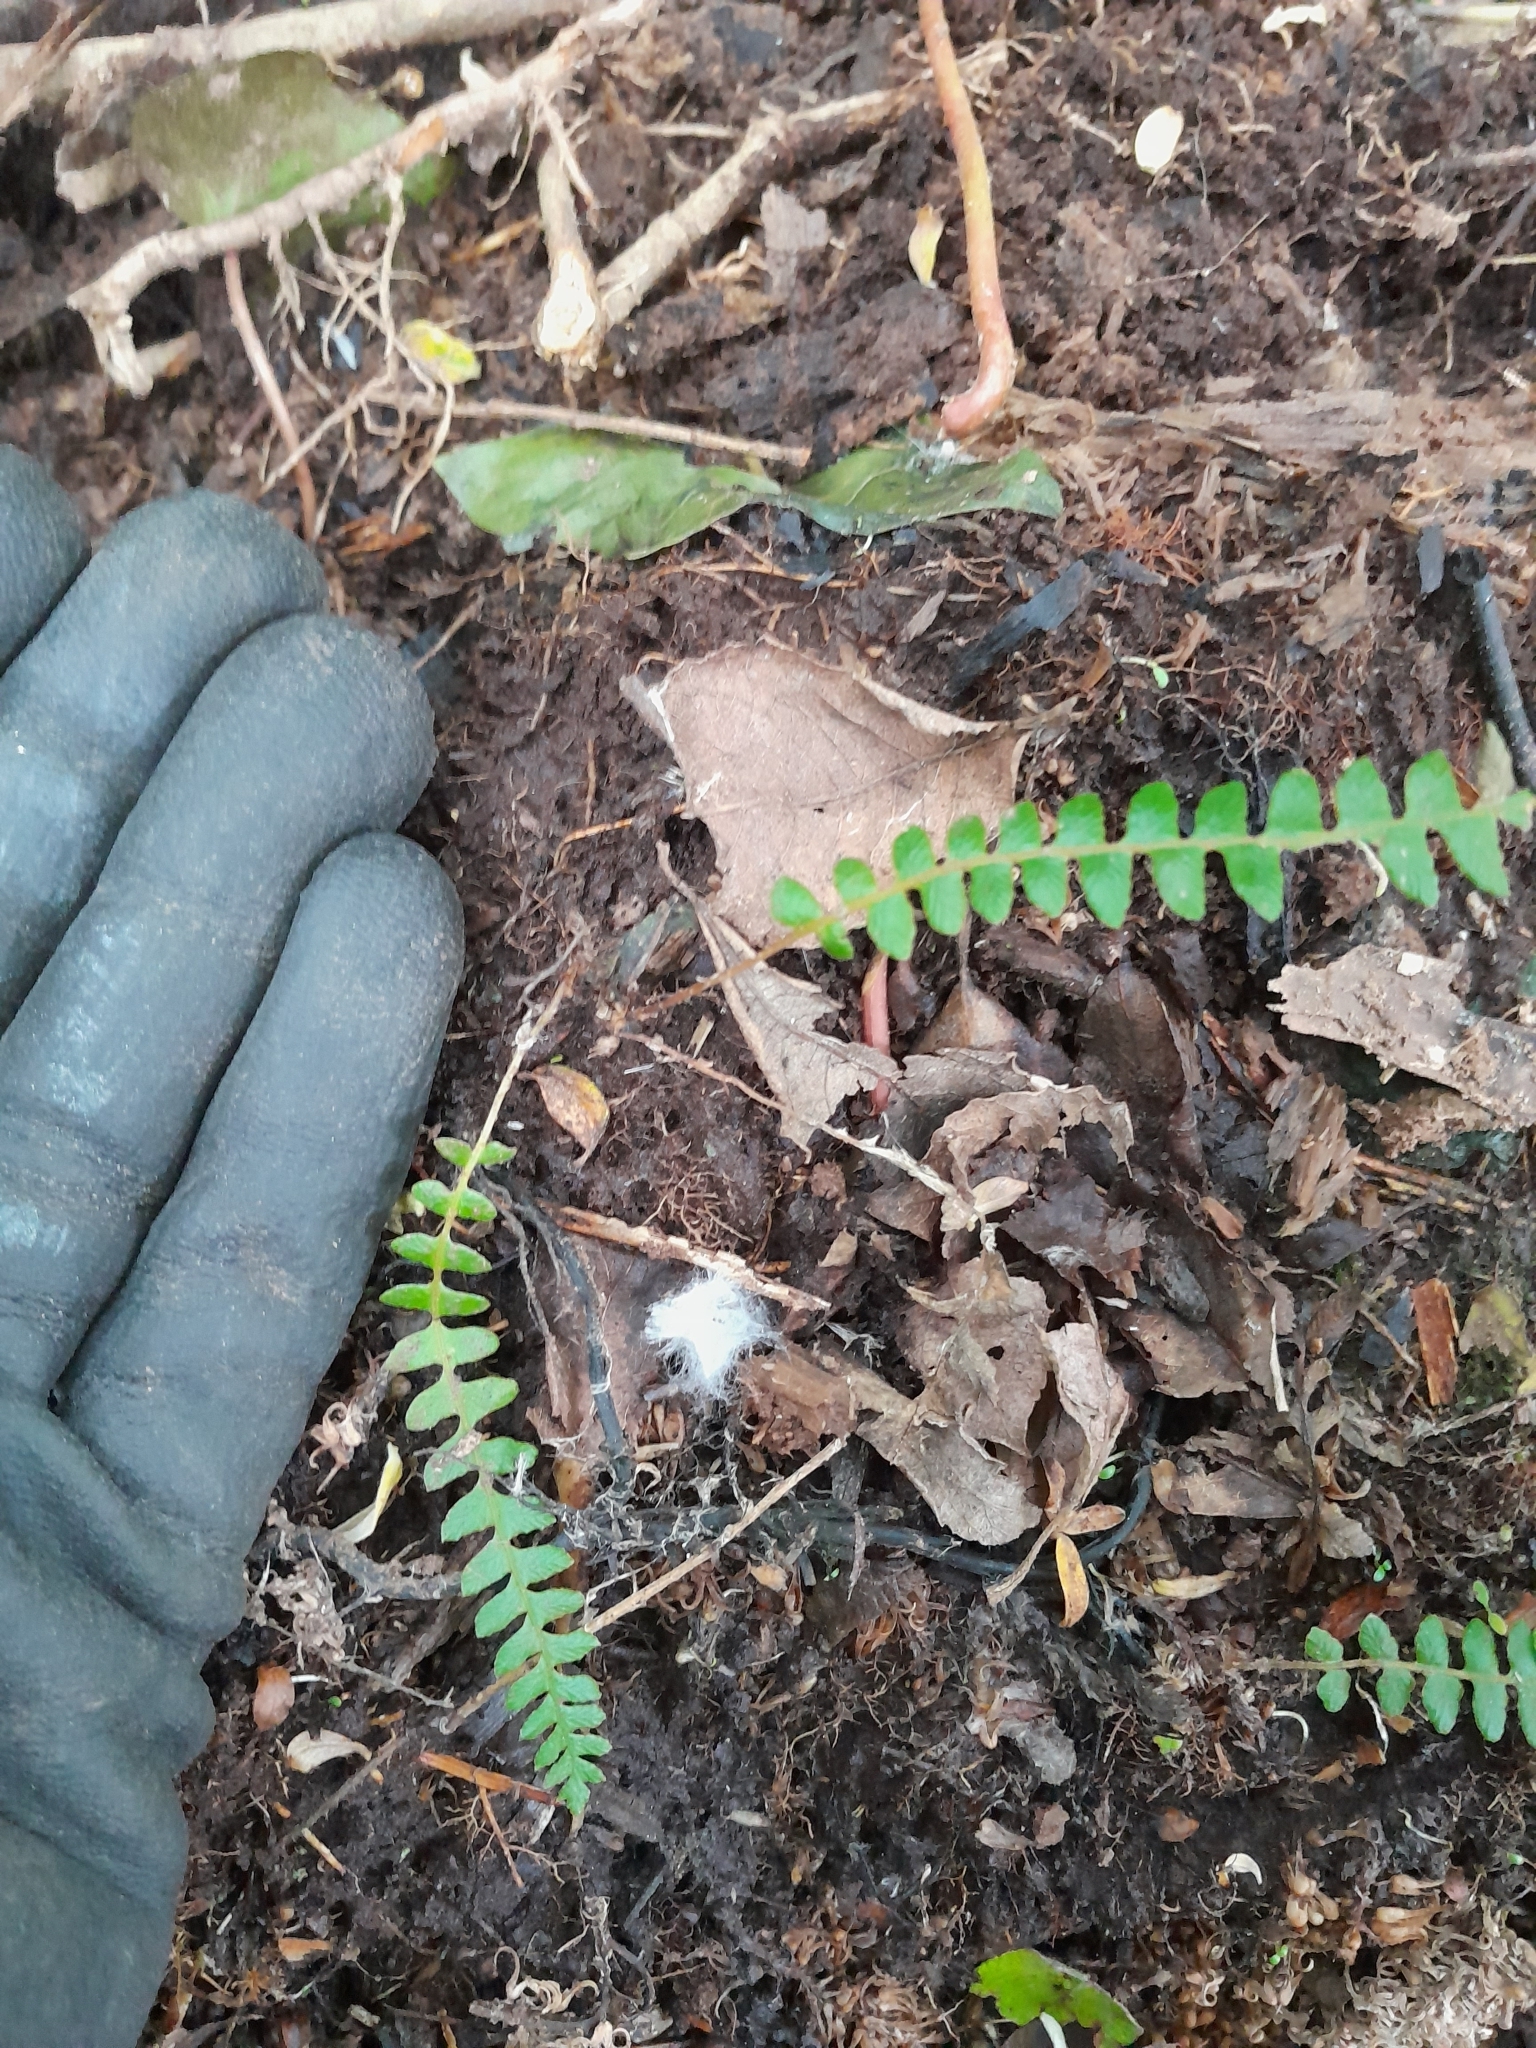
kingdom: Plantae
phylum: Tracheophyta
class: Polypodiopsida
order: Polypodiales
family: Blechnaceae
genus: Austroblechnum
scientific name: Austroblechnum penna-marina
